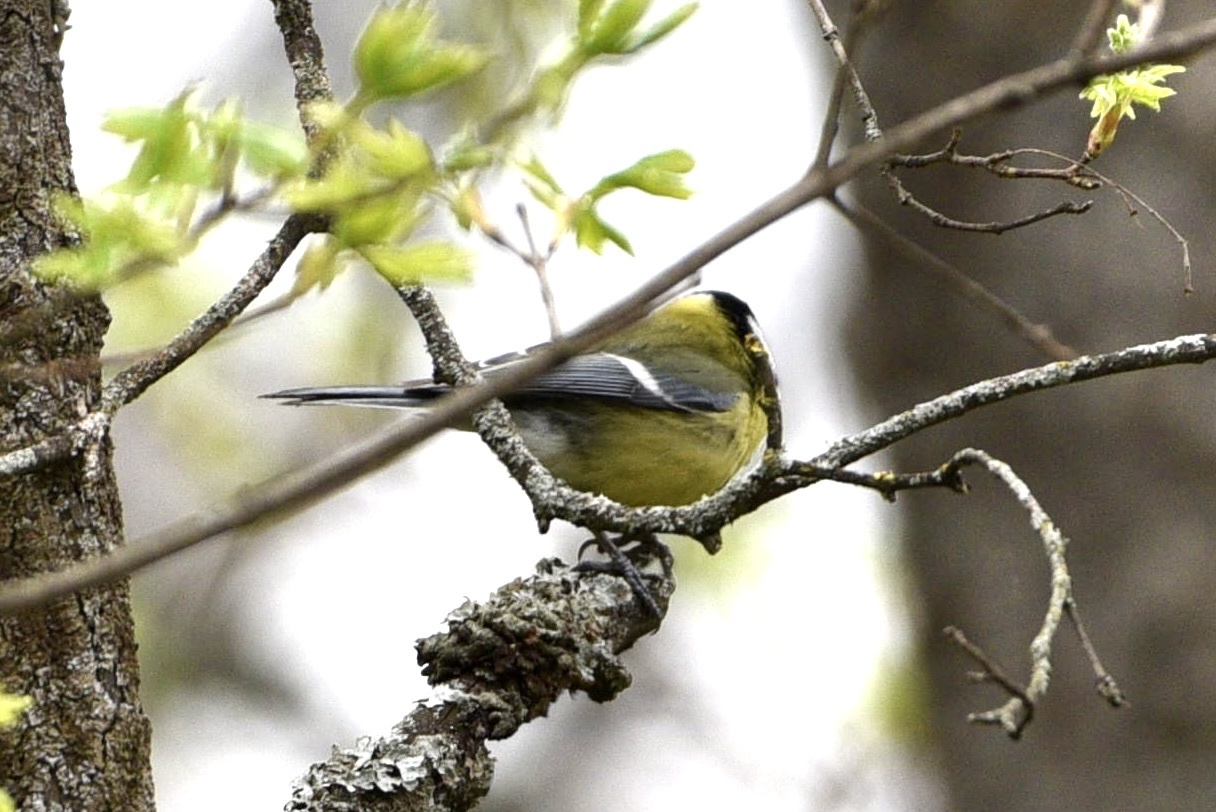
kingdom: Animalia
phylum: Chordata
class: Aves
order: Passeriformes
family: Paridae
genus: Parus
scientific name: Parus major
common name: Great tit
